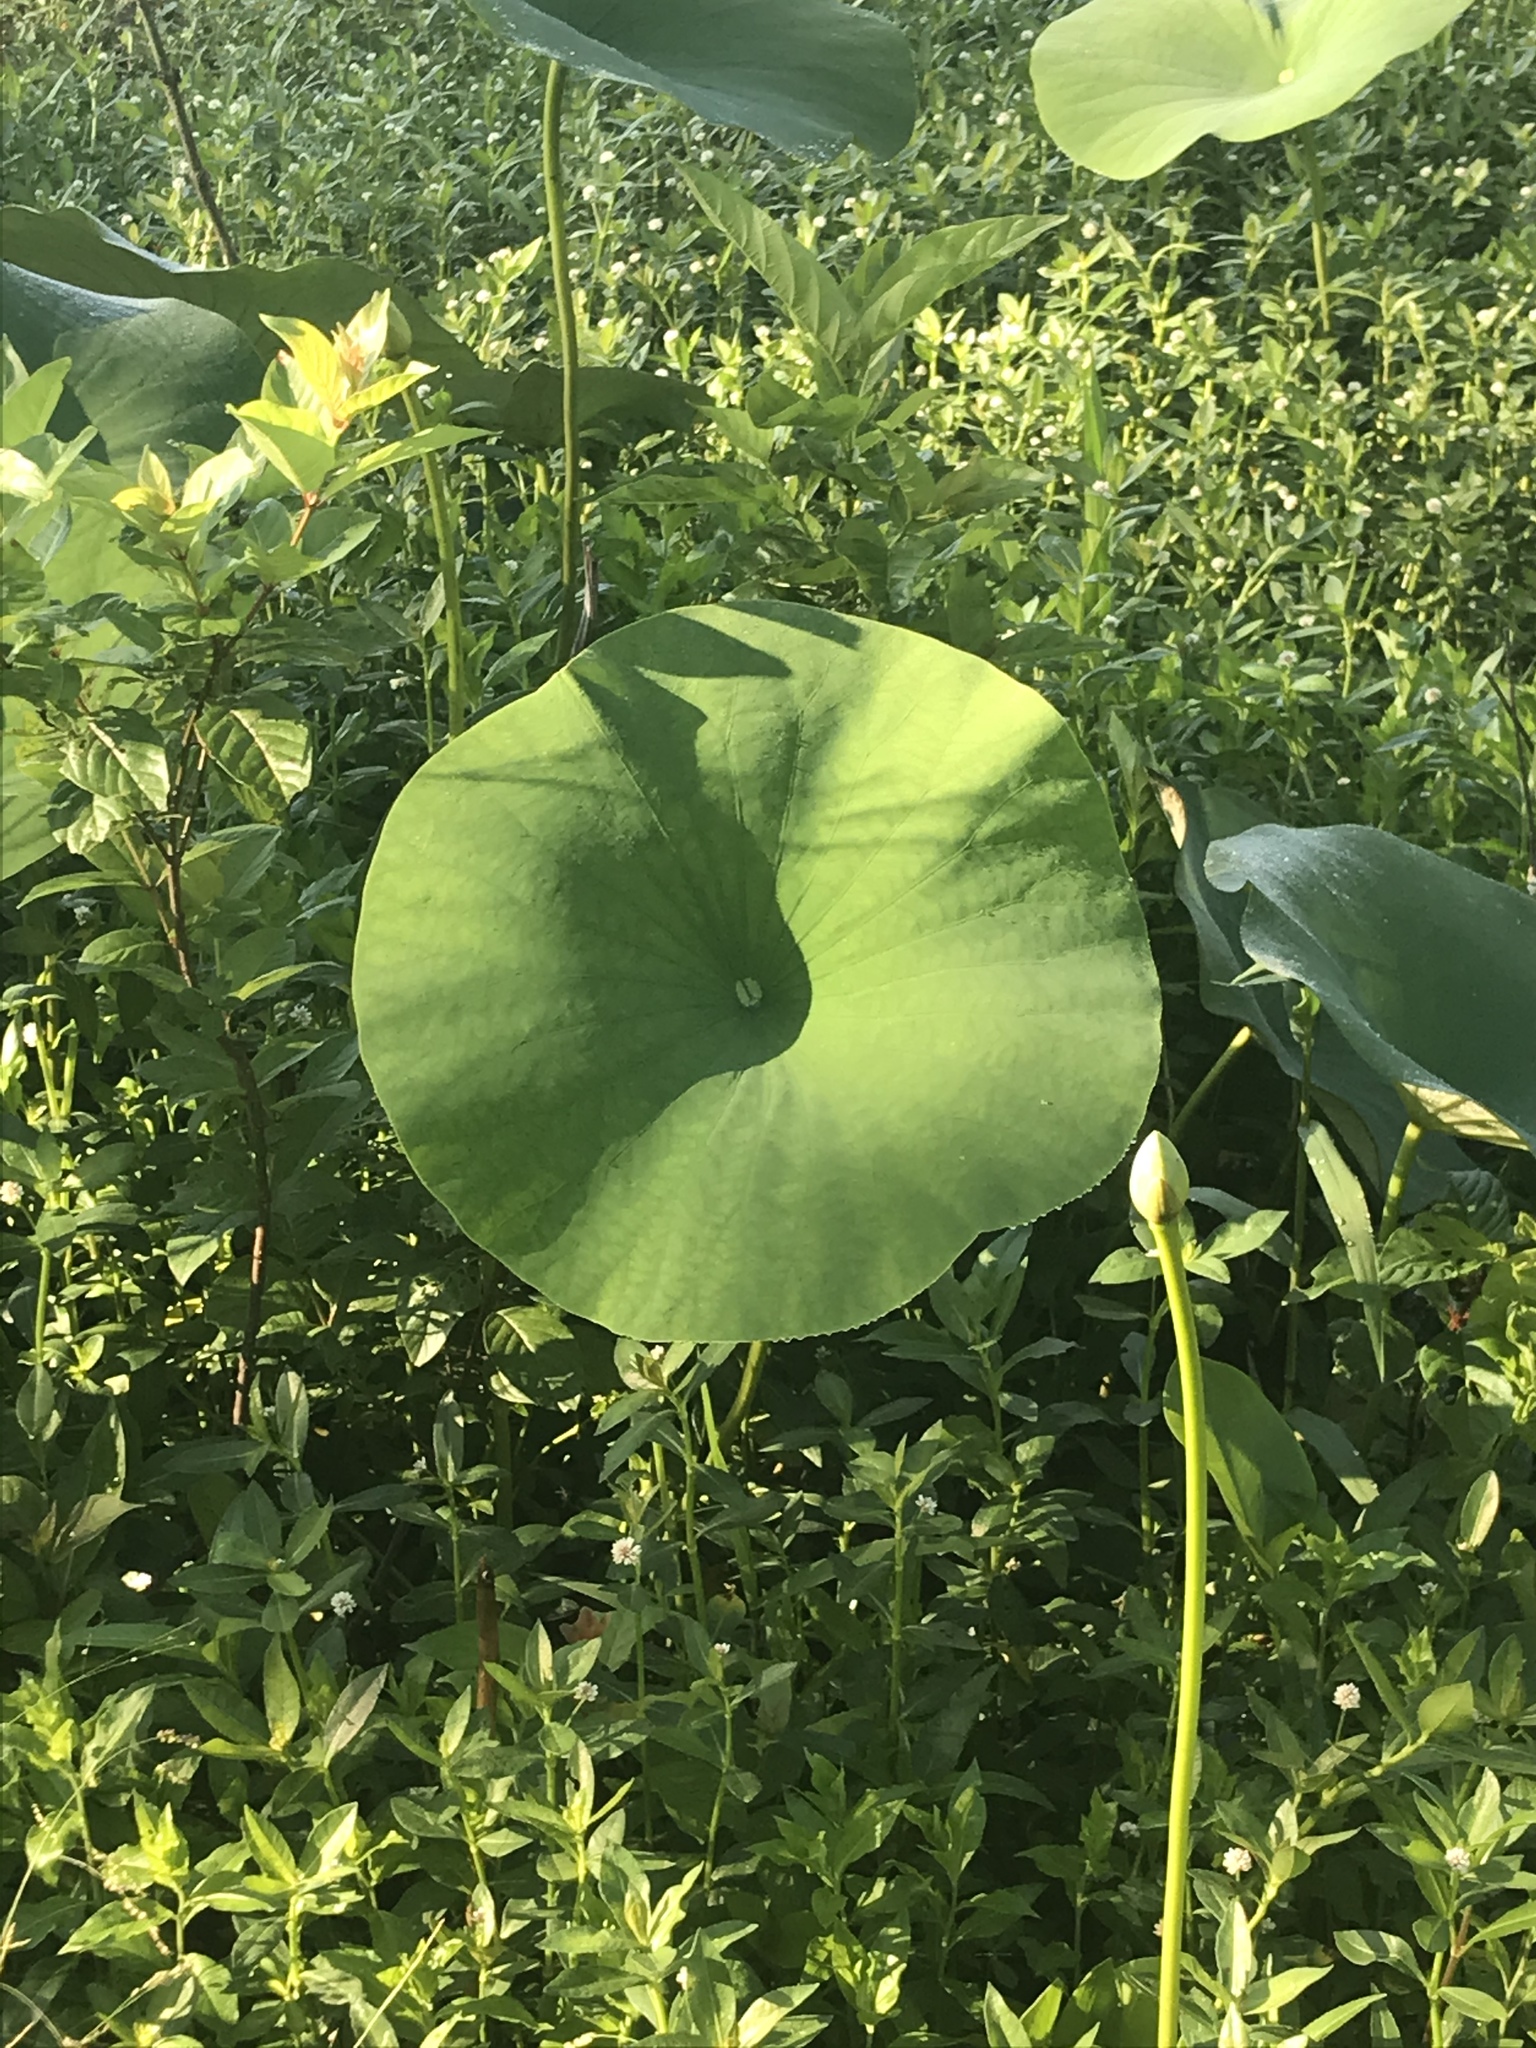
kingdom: Plantae
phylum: Tracheophyta
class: Magnoliopsida
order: Proteales
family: Nelumbonaceae
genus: Nelumbo
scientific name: Nelumbo lutea
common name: American lotus
